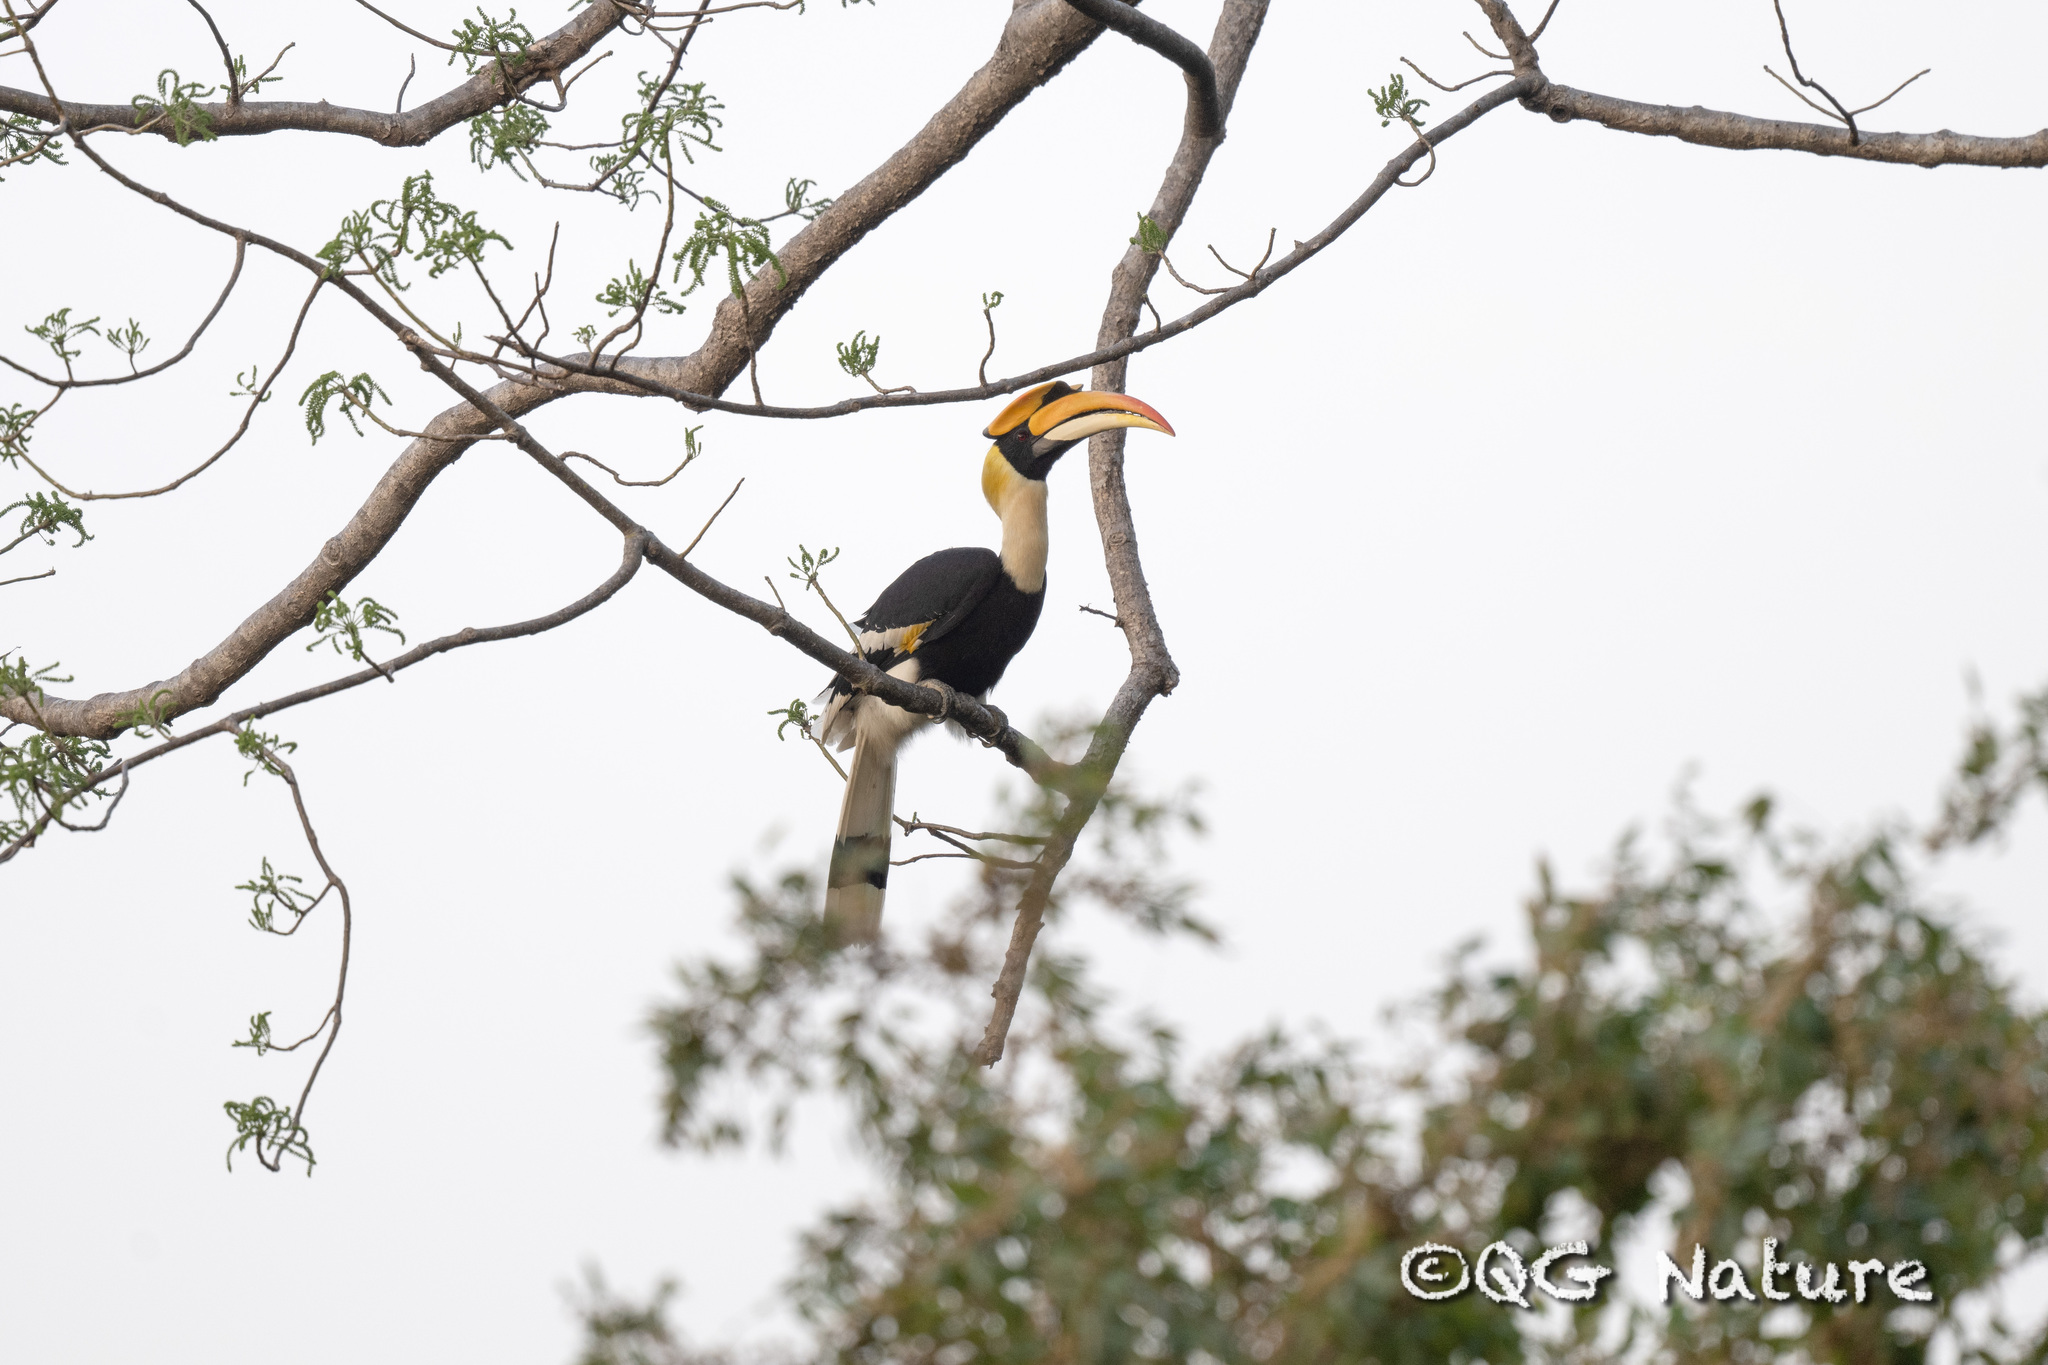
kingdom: Animalia
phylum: Chordata
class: Aves
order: Bucerotiformes
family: Bucerotidae
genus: Buceros
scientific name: Buceros bicornis
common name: Great hornbill
